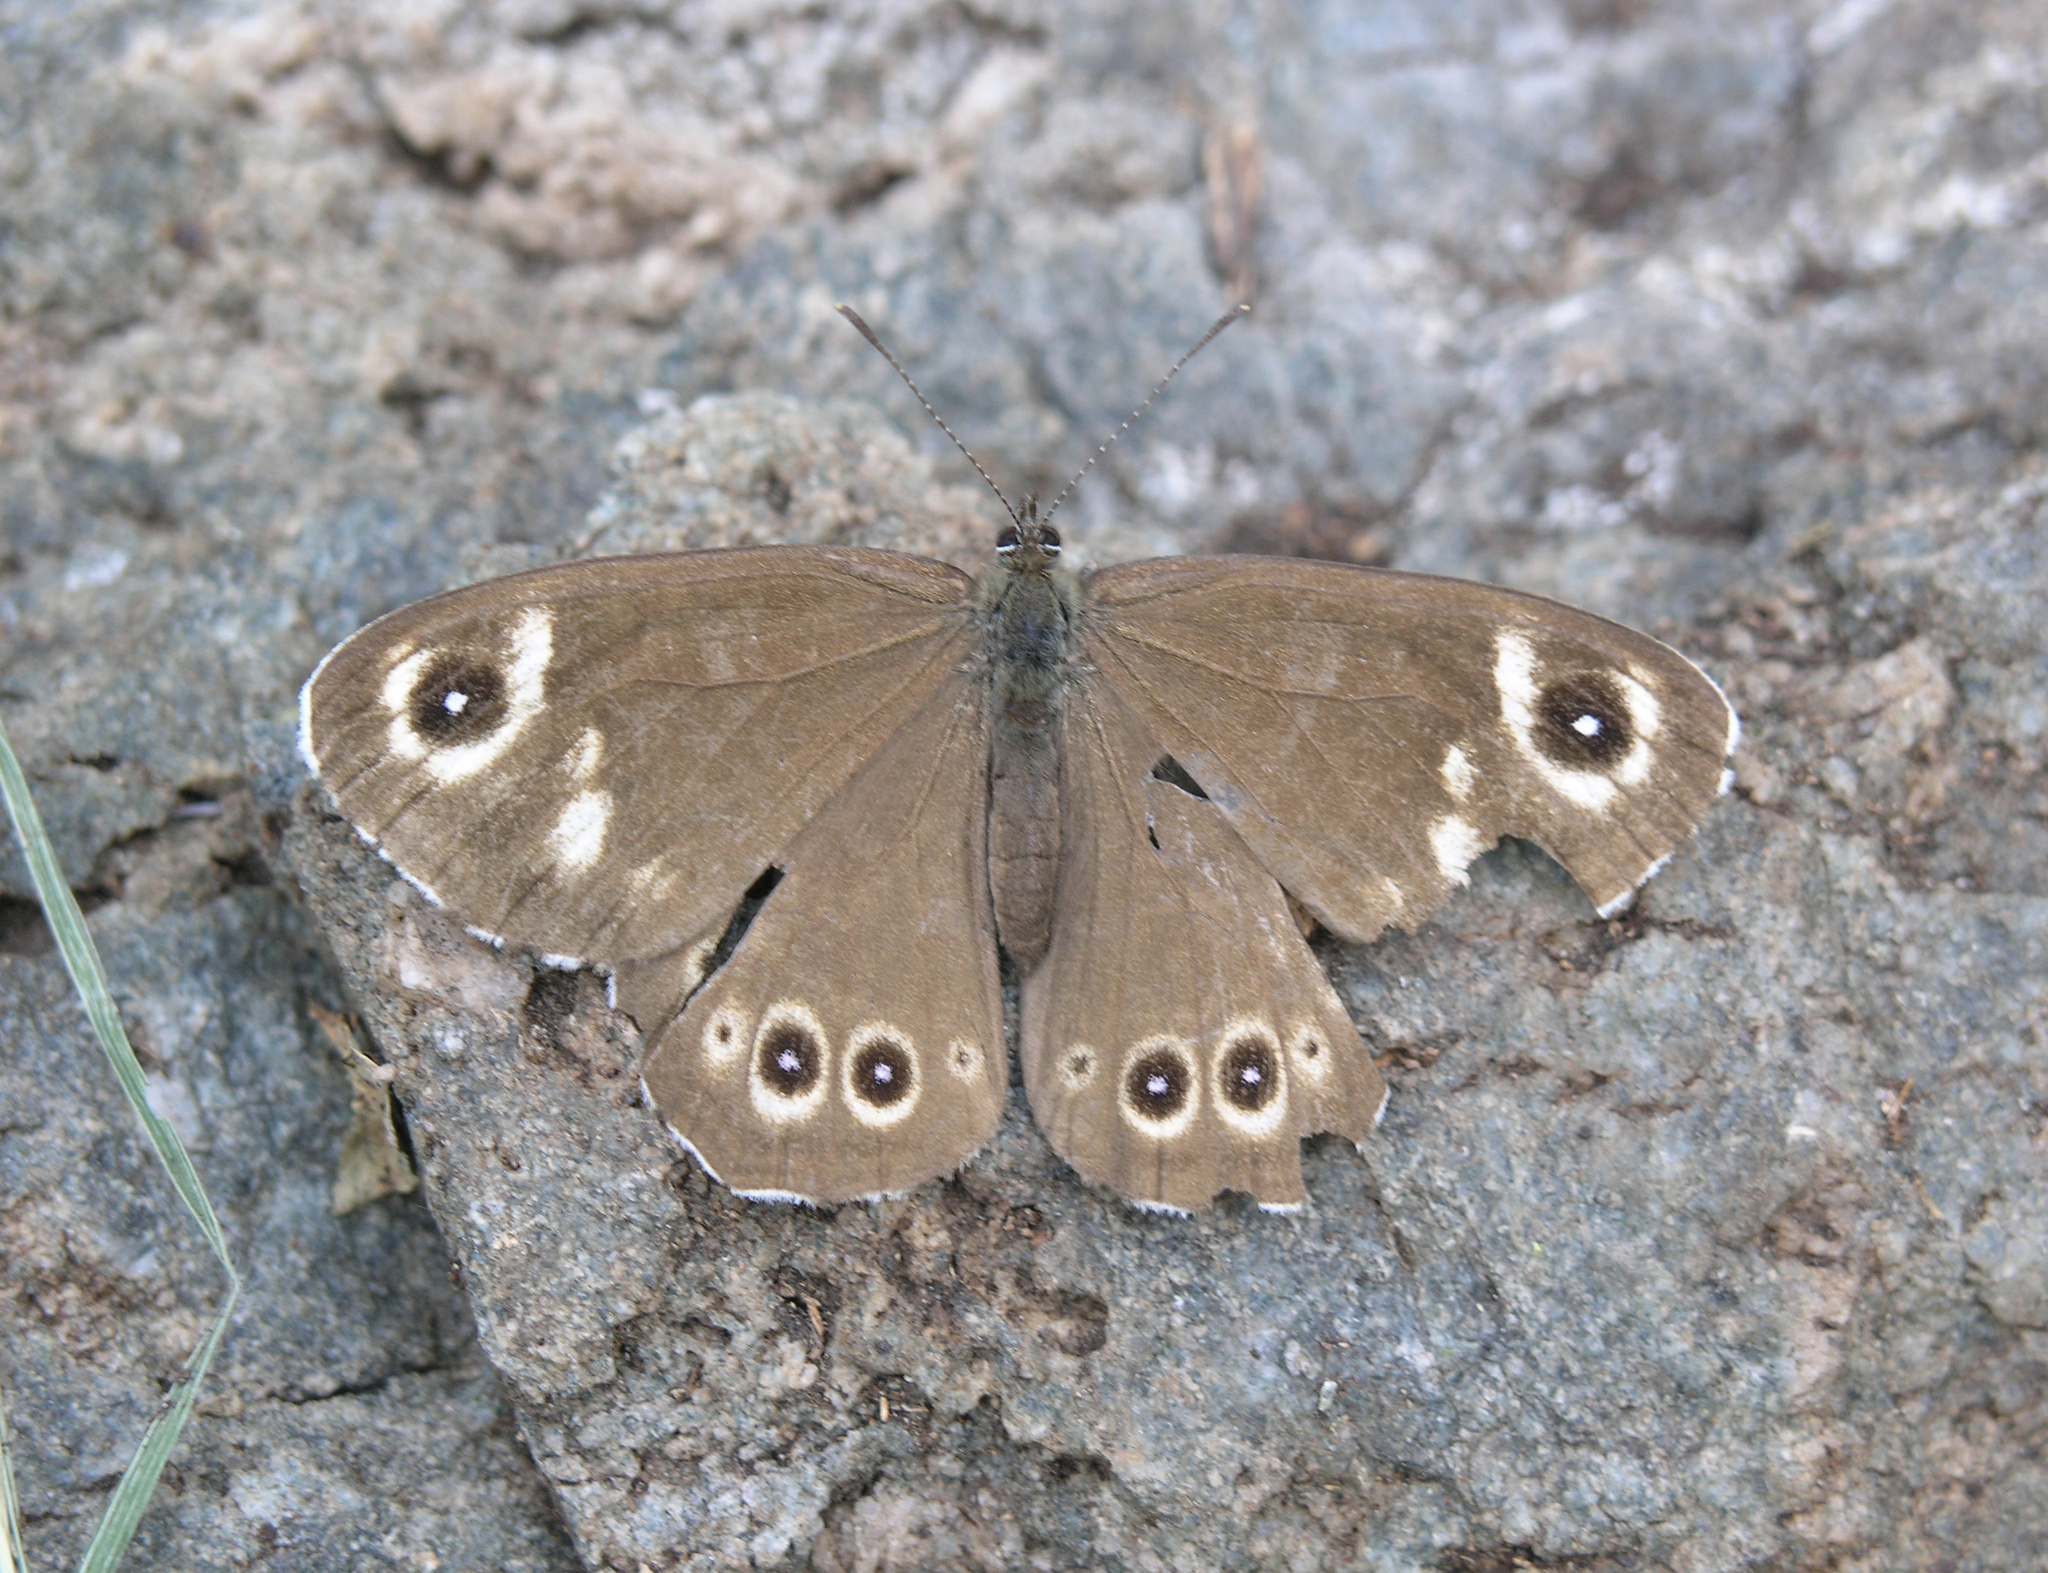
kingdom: Animalia
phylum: Arthropoda
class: Insecta
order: Lepidoptera
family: Nymphalidae
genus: Pararge
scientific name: Pararge Lasiommata deidamia
